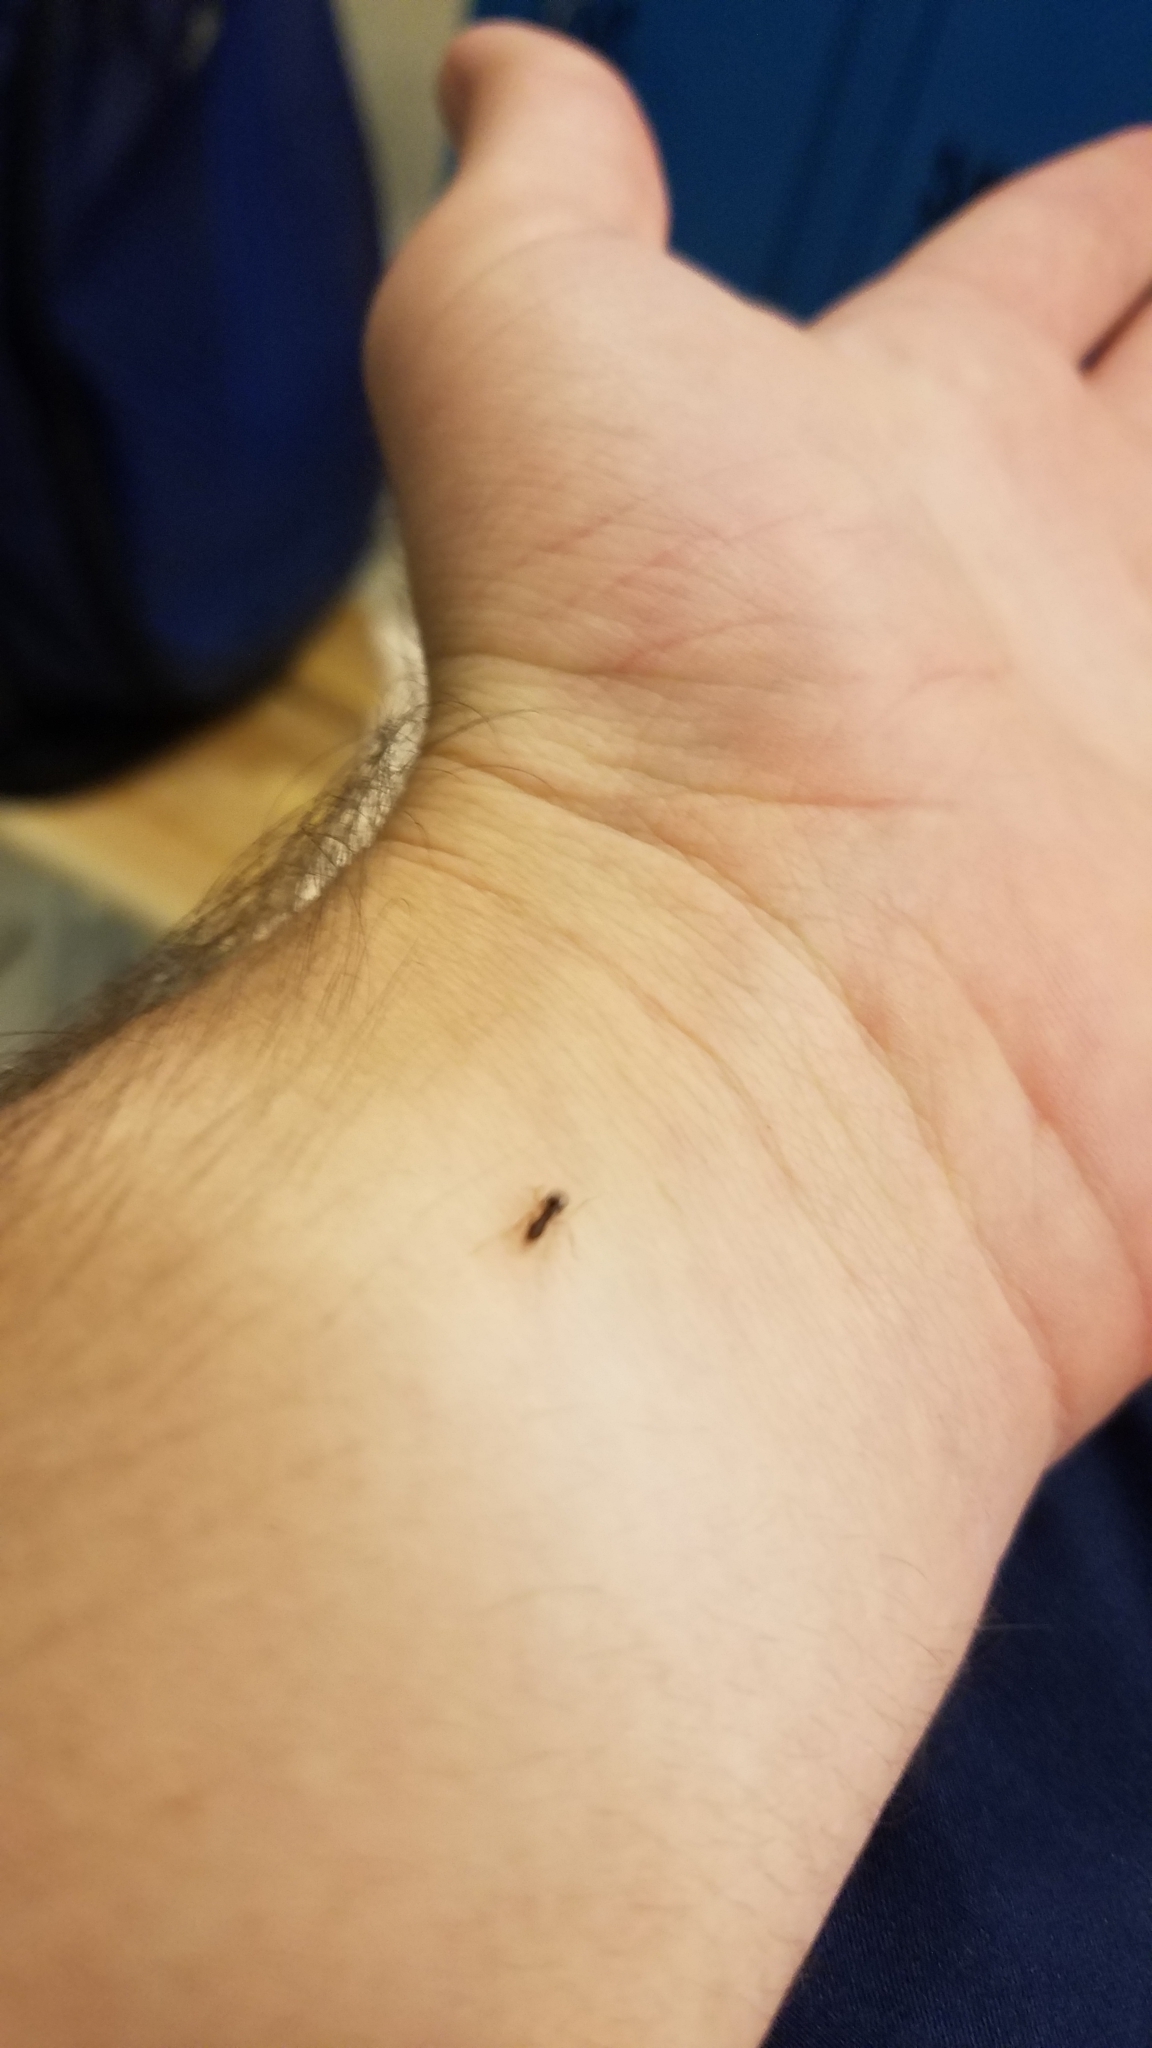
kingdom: Animalia
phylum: Arthropoda
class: Insecta
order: Hymenoptera
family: Formicidae
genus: Prenolepis
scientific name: Prenolepis imparis
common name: Small honey ant
